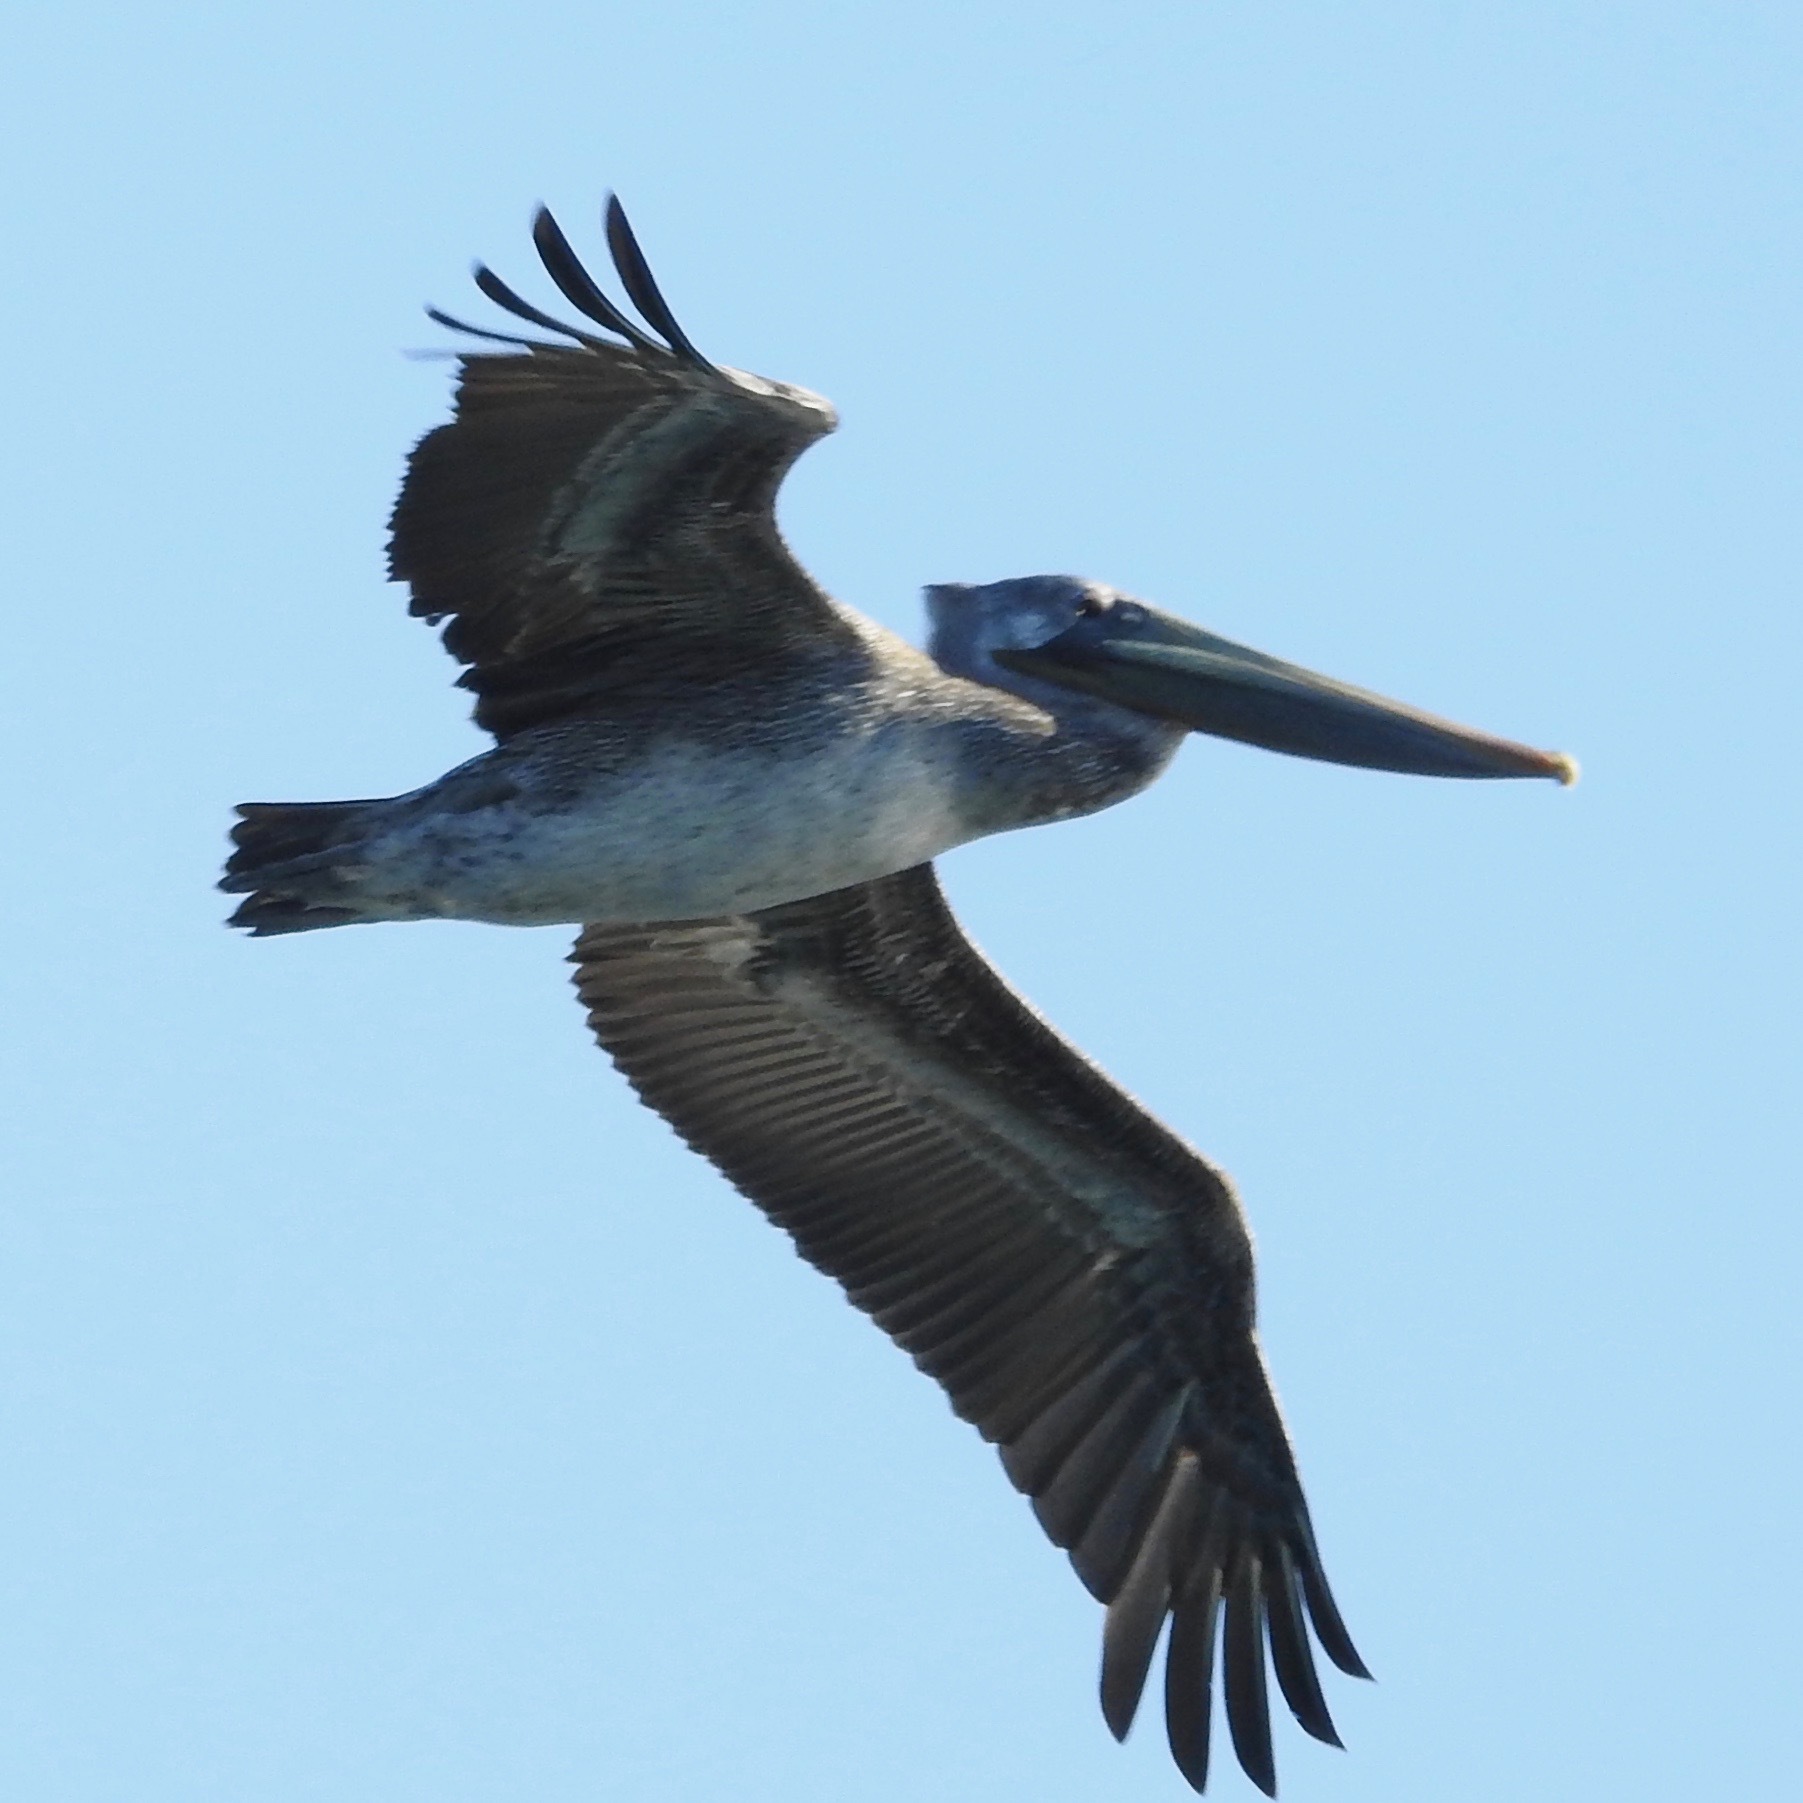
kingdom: Animalia
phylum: Chordata
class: Aves
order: Pelecaniformes
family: Pelecanidae
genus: Pelecanus
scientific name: Pelecanus occidentalis
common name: Brown pelican
